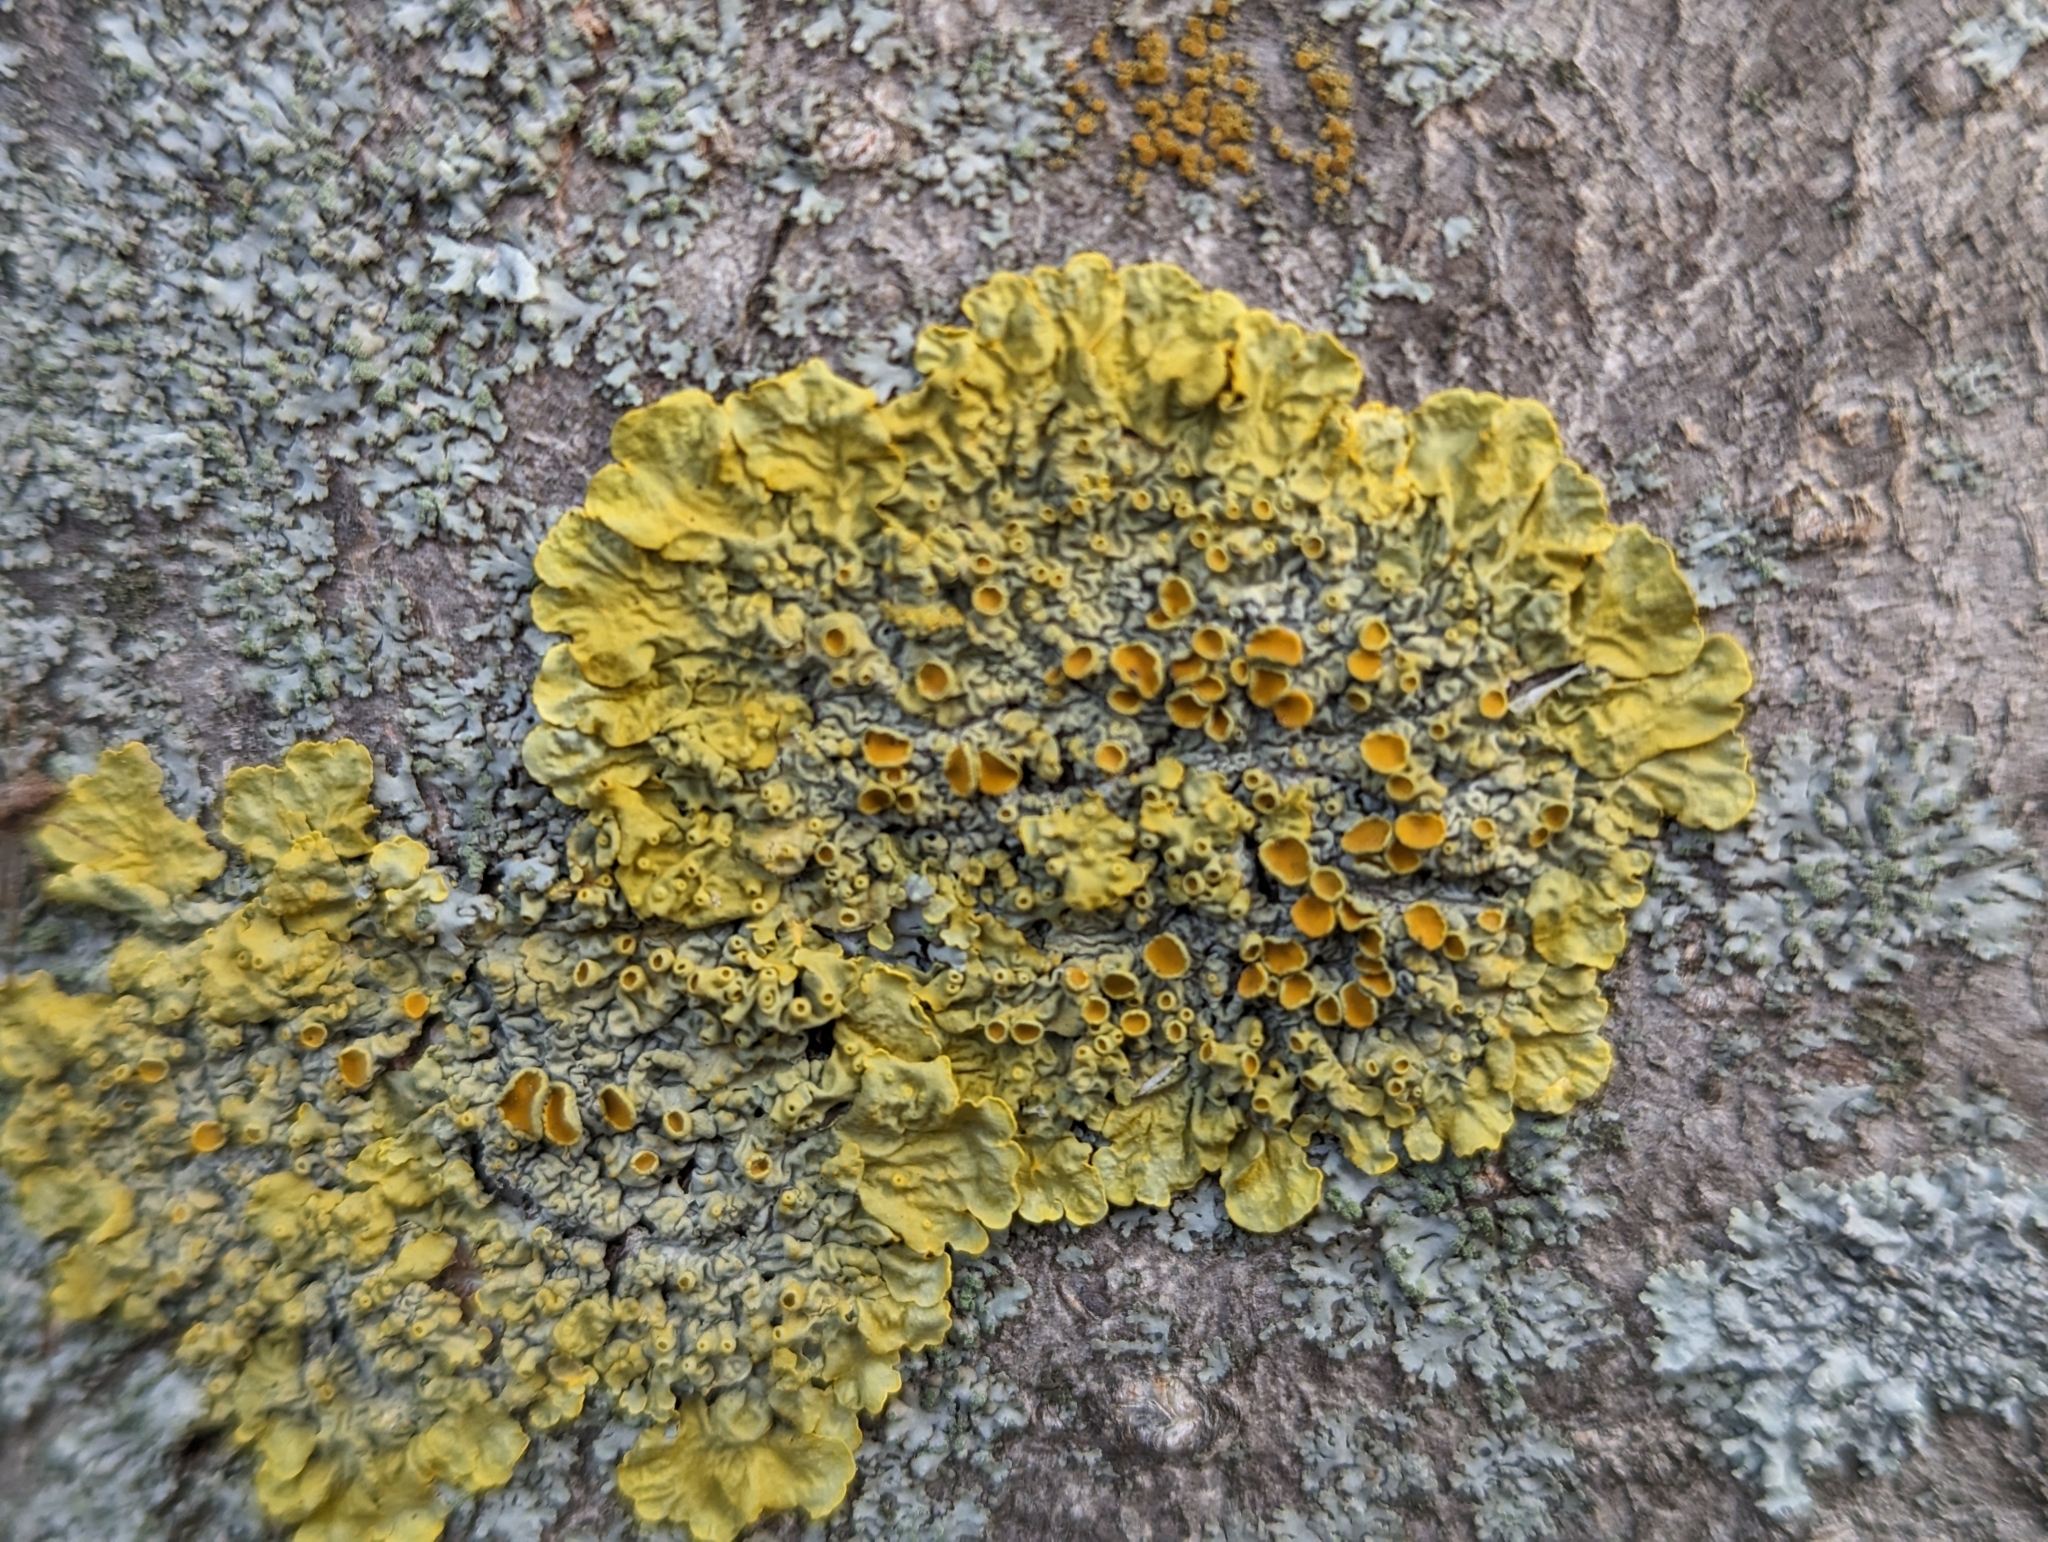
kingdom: Fungi
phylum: Ascomycota
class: Lecanoromycetes
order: Teloschistales
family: Teloschistaceae
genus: Xanthoria
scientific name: Xanthoria parietina
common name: Common orange lichen
